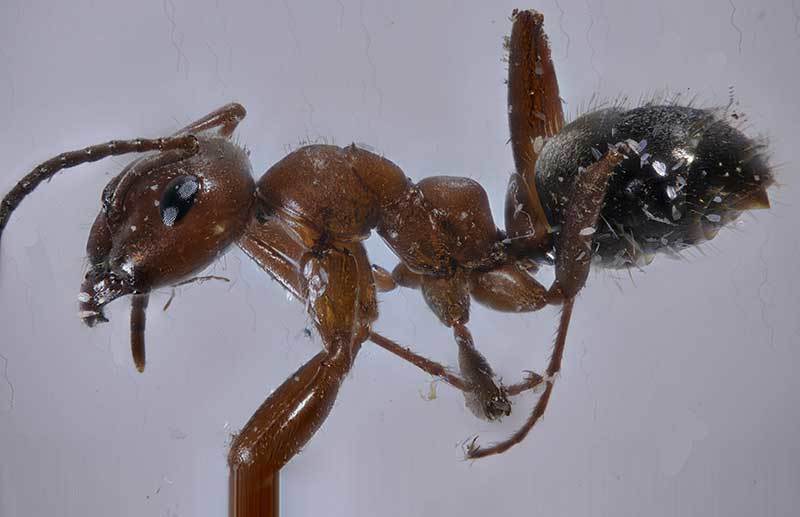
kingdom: Animalia
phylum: Arthropoda
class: Insecta
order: Hymenoptera
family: Formicidae
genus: Formica
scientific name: Formica dakotensis
